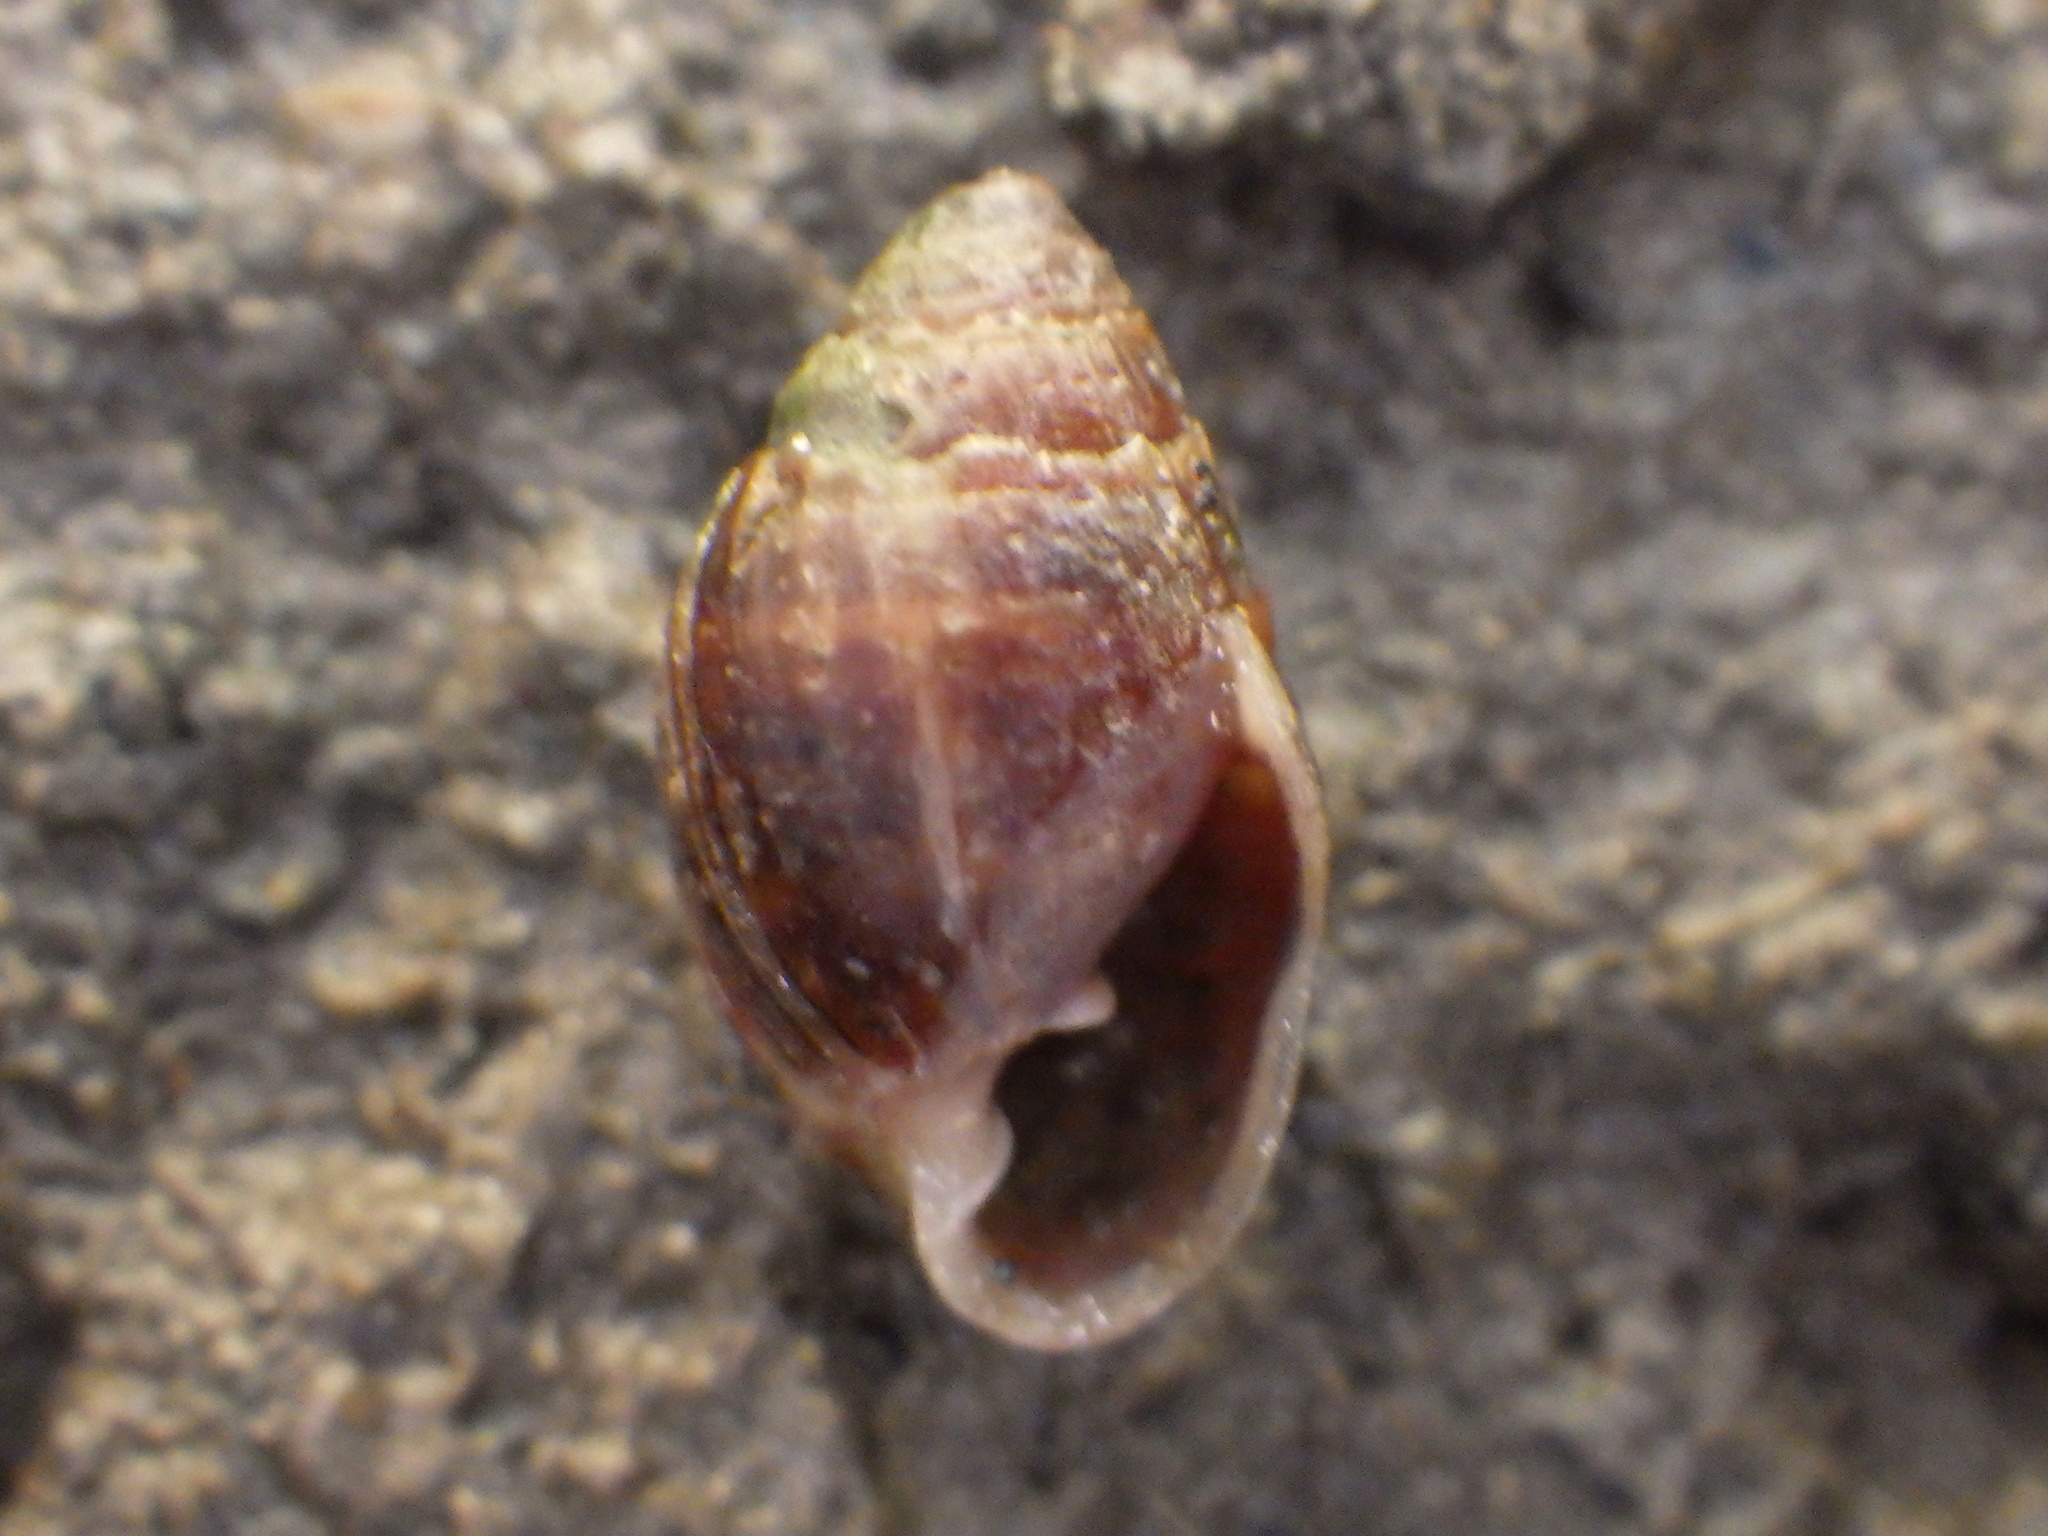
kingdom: Animalia
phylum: Mollusca
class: Gastropoda
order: Ellobiida
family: Ellobiidae
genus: Pleuroloba
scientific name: Pleuroloba costellaris
